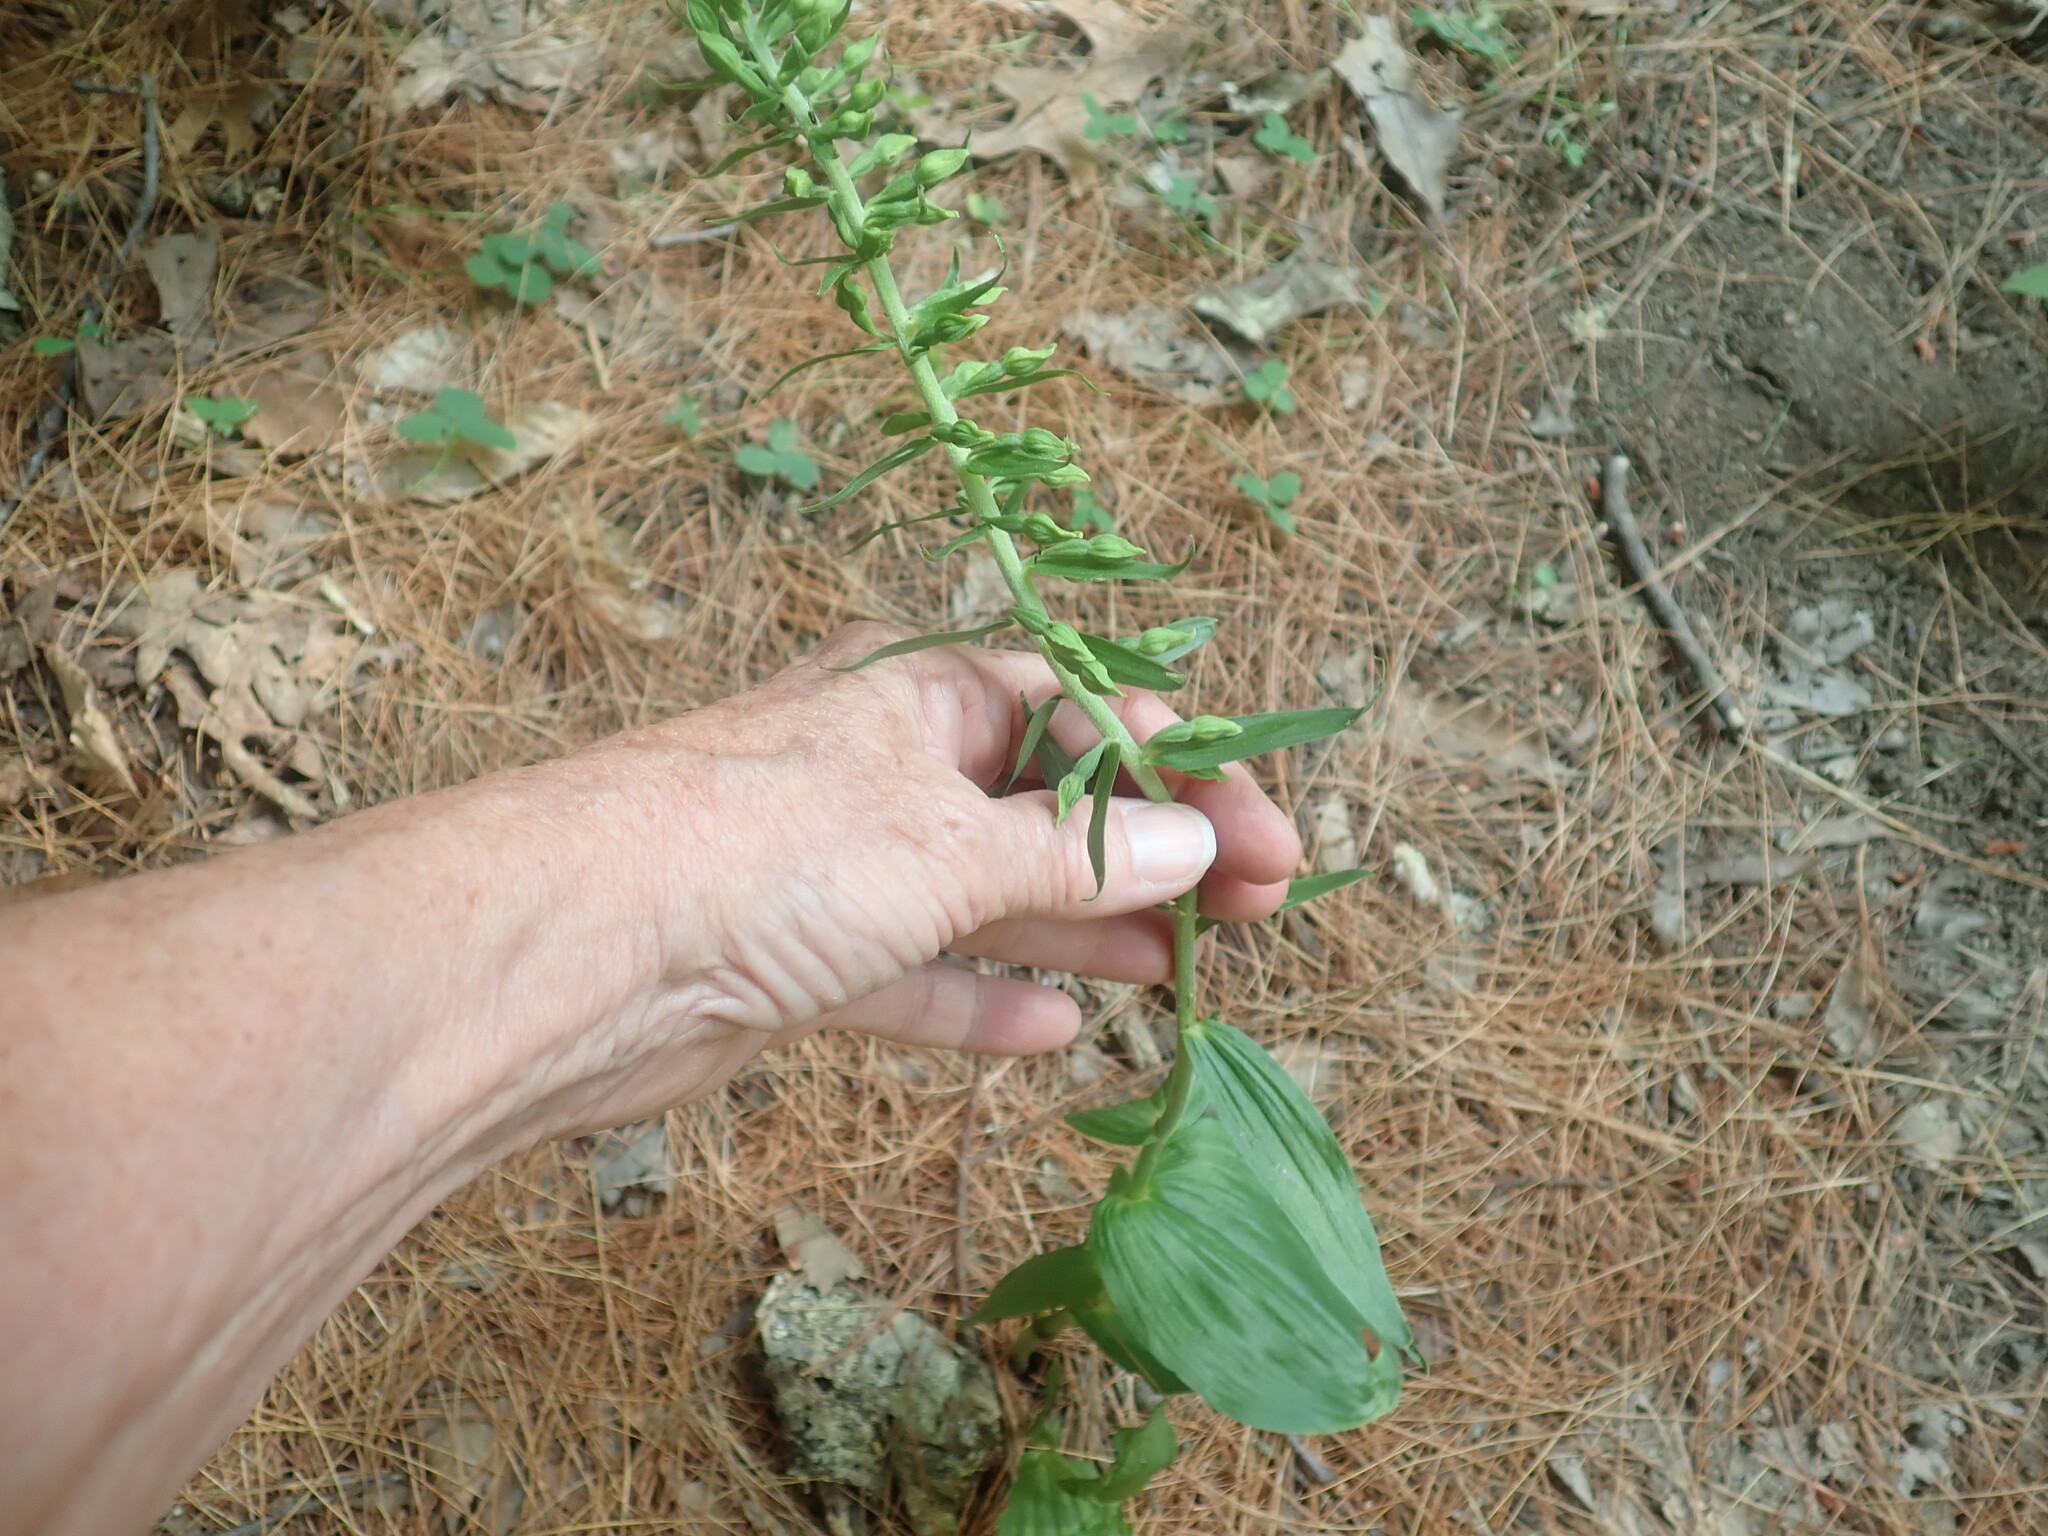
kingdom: Plantae
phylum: Tracheophyta
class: Liliopsida
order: Asparagales
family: Orchidaceae
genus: Epipactis
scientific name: Epipactis helleborine
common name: Broad-leaved helleborine
